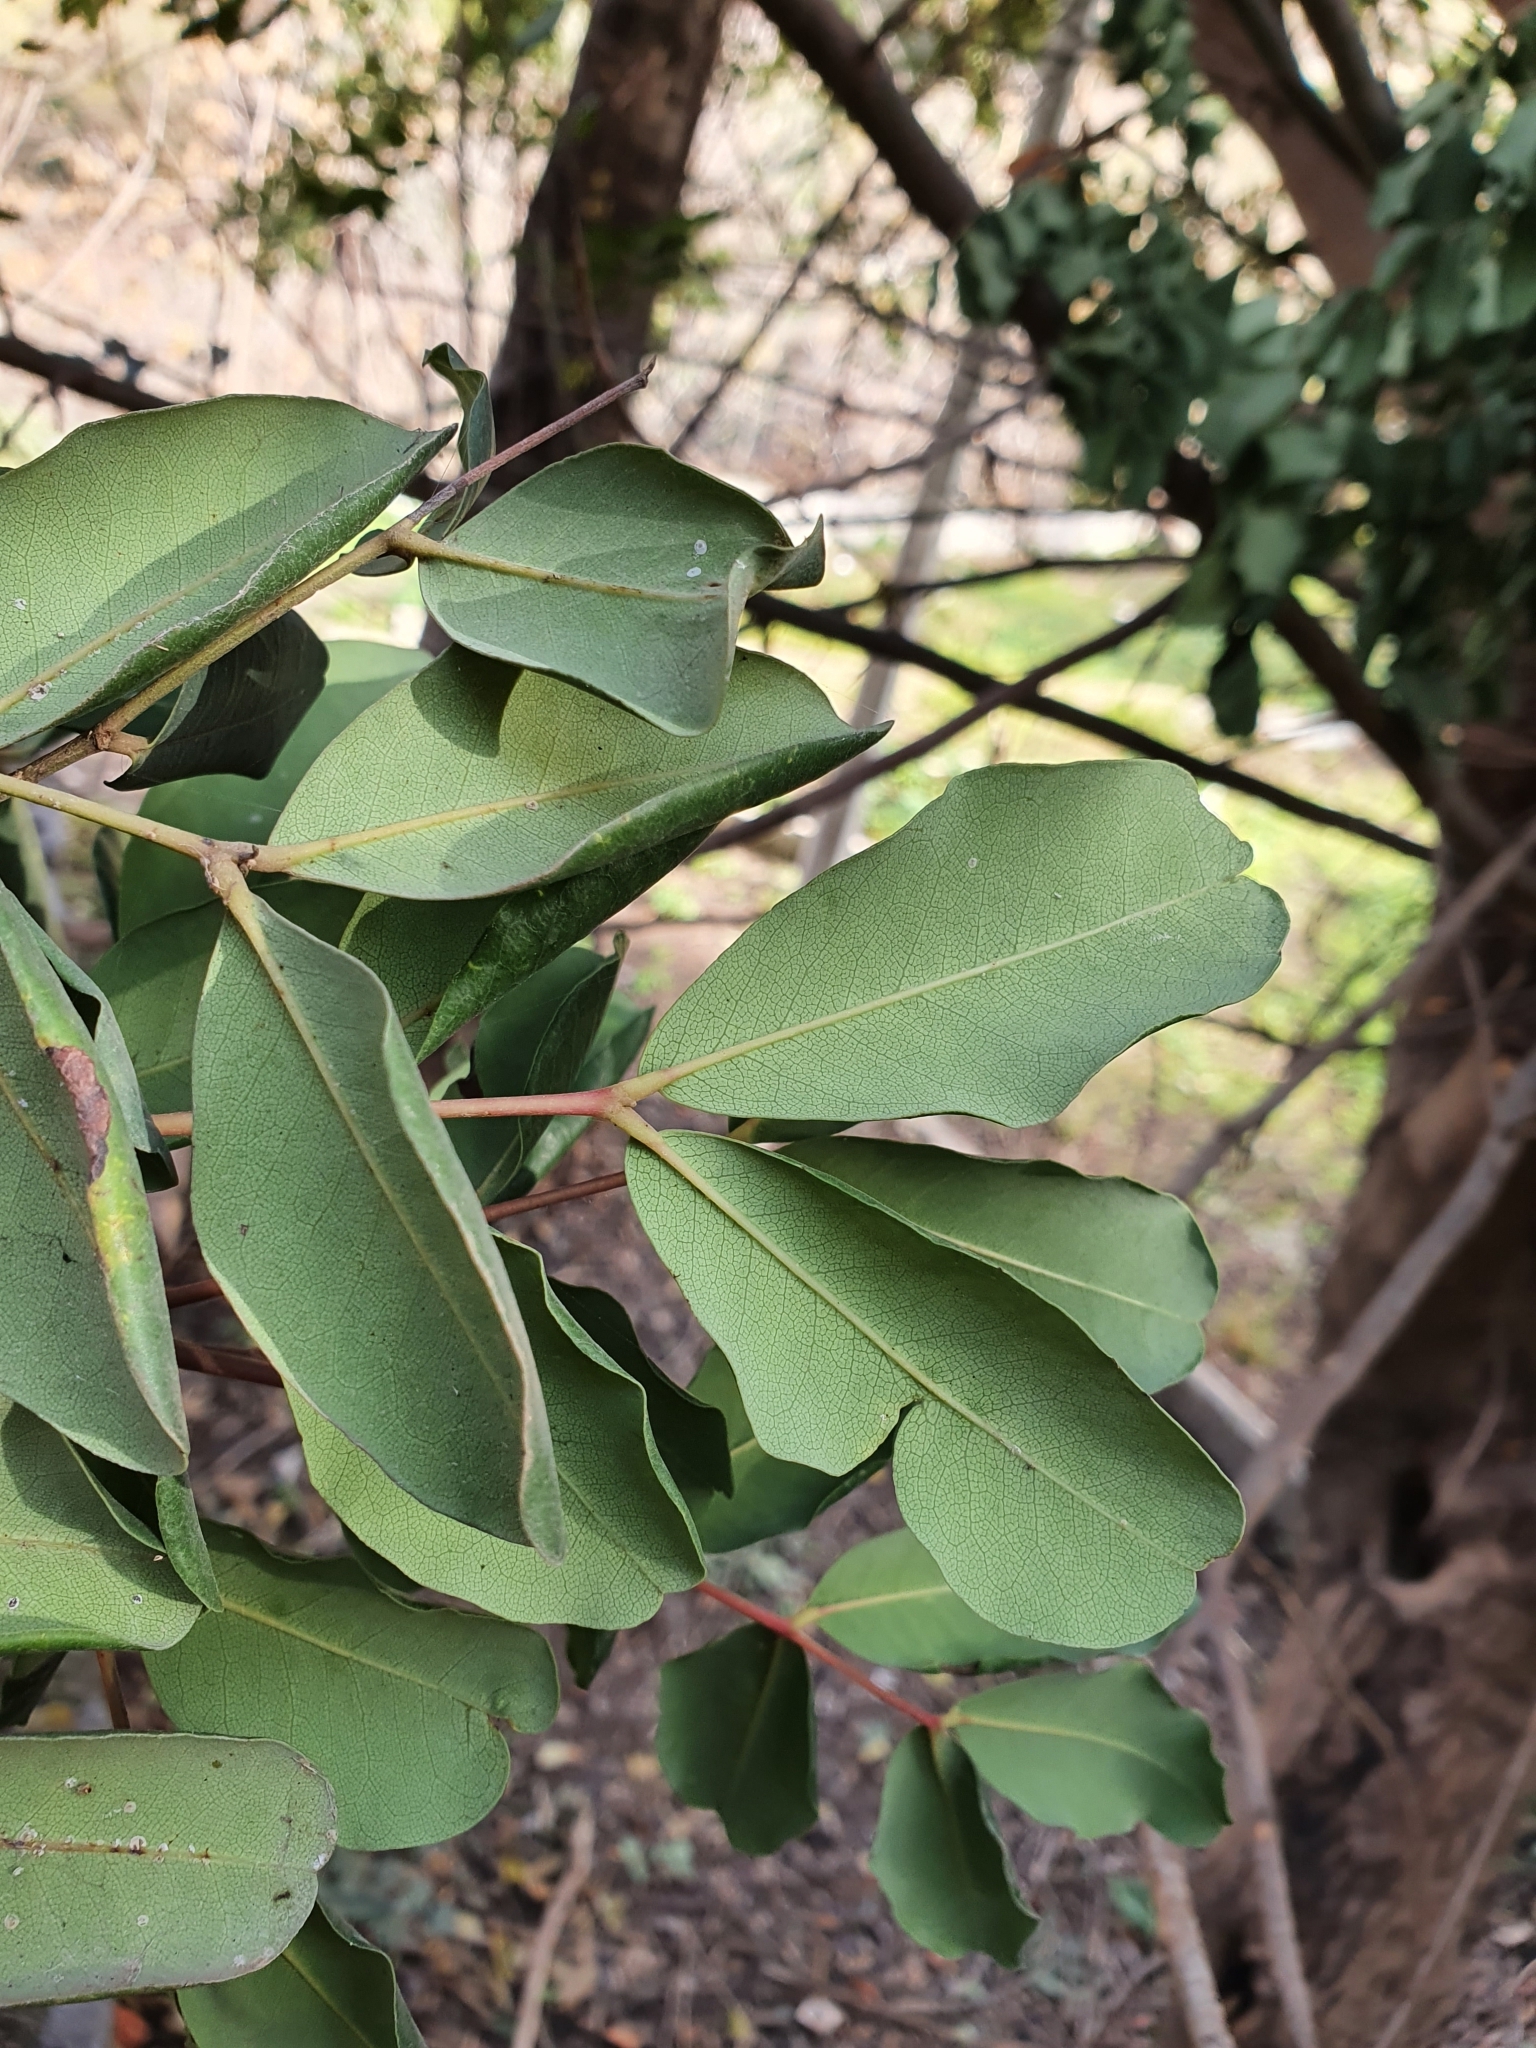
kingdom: Plantae
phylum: Tracheophyta
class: Magnoliopsida
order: Fabales
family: Fabaceae
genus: Ceratonia
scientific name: Ceratonia siliqua
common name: Carob
